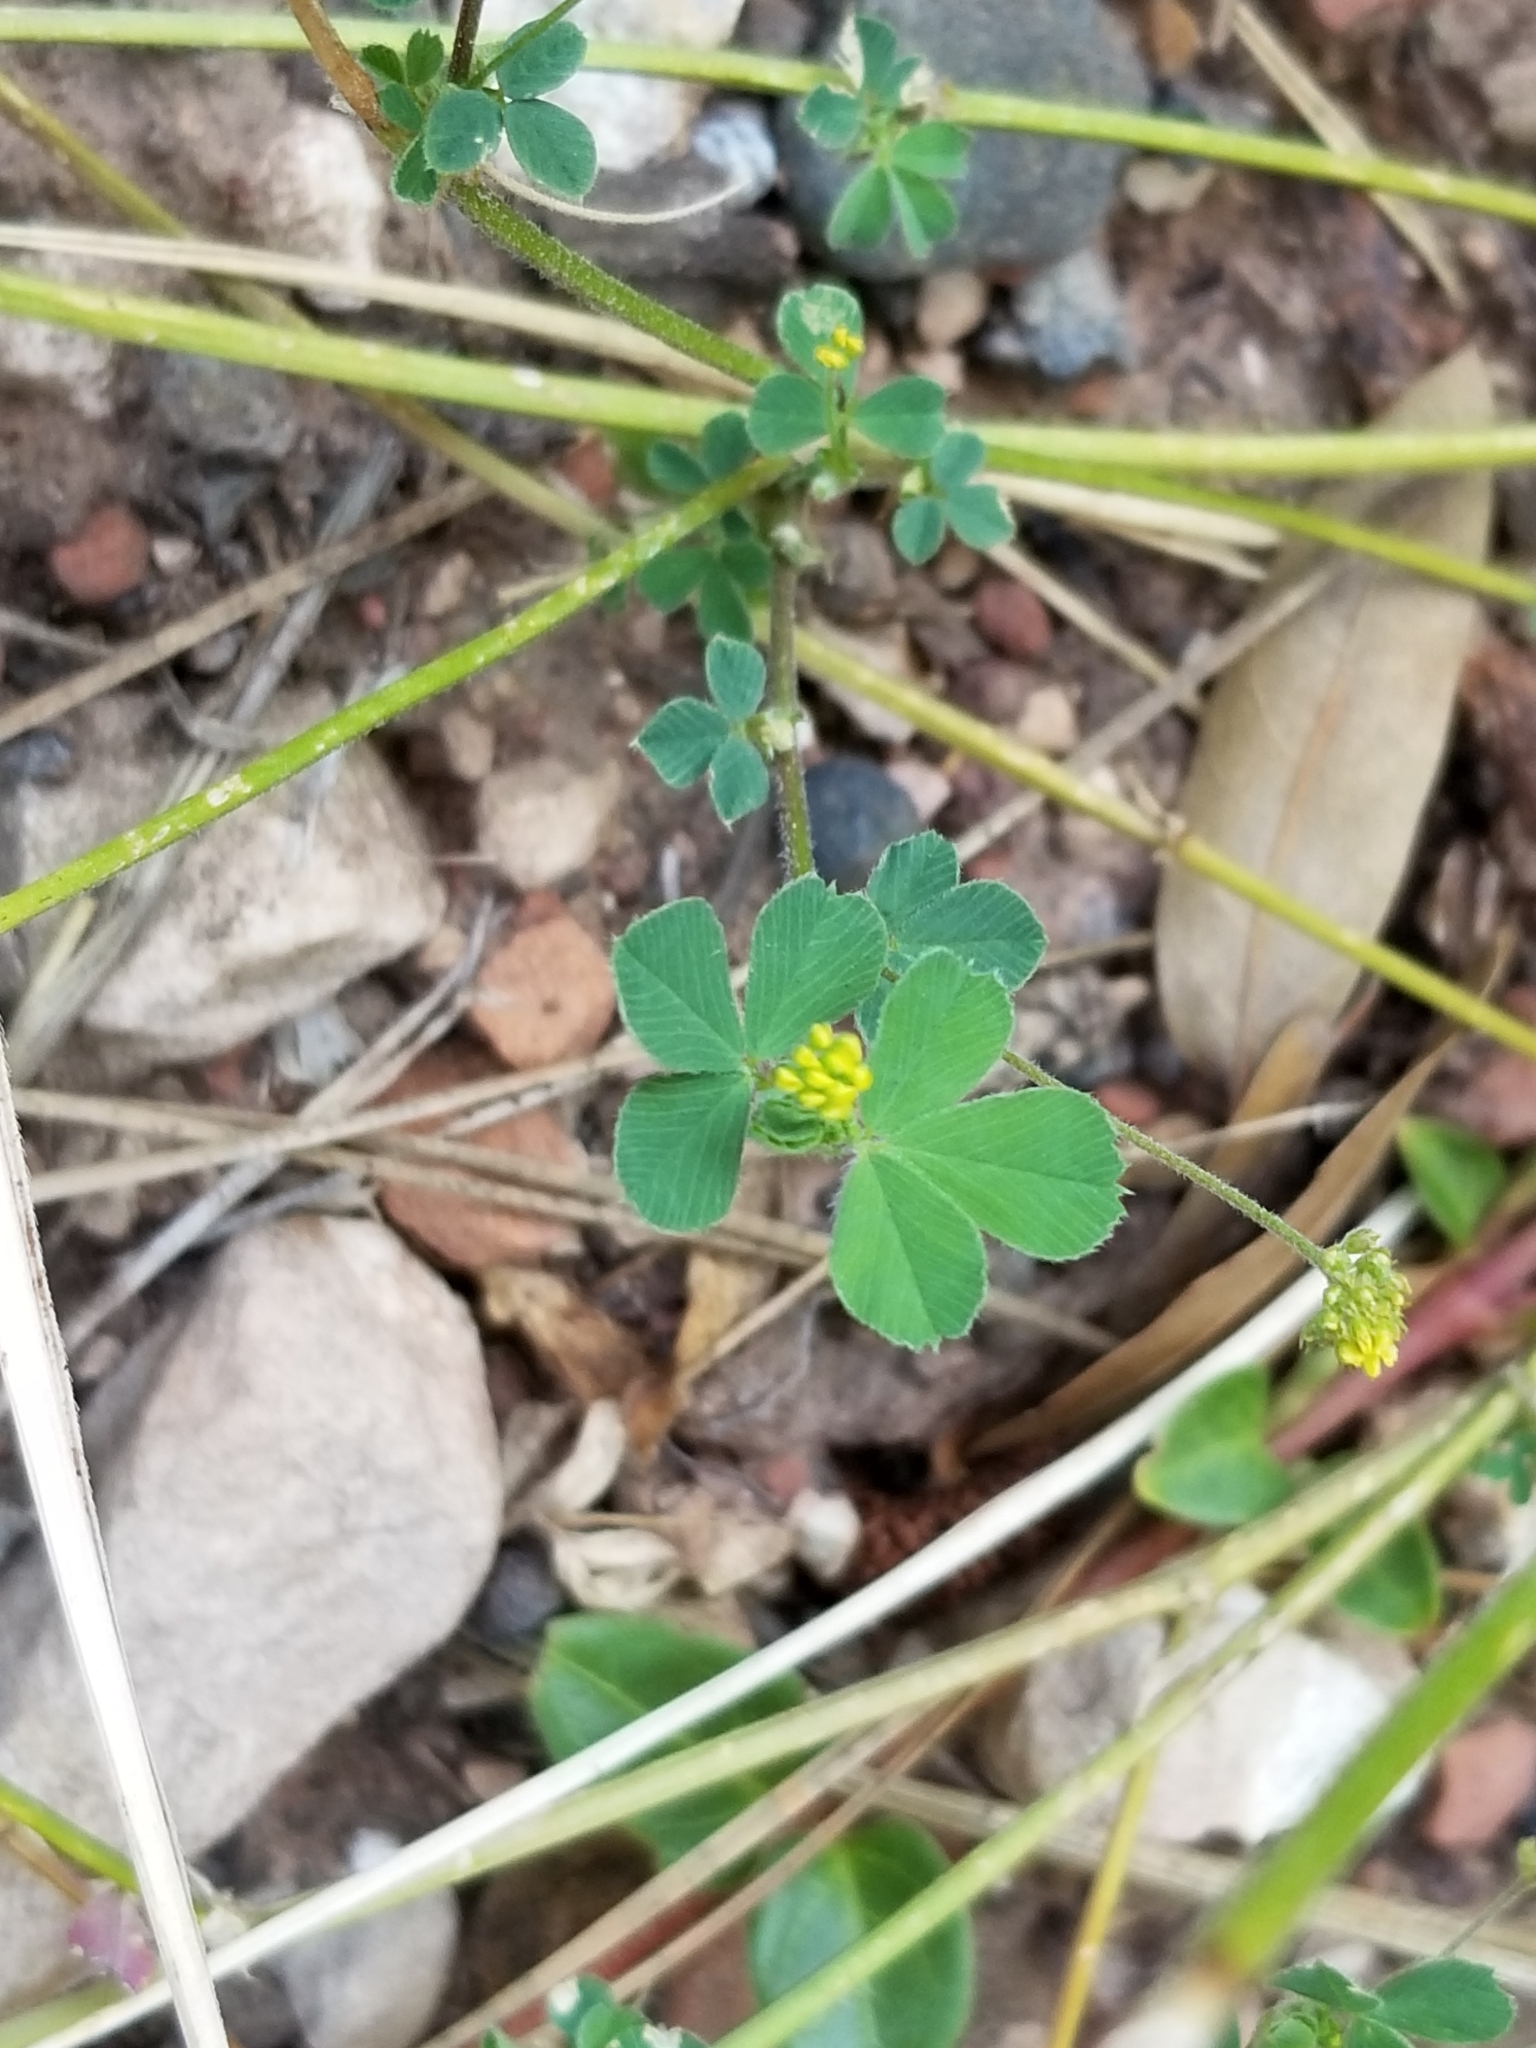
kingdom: Plantae
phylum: Tracheophyta
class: Magnoliopsida
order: Fabales
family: Fabaceae
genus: Medicago
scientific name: Medicago lupulina
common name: Black medick
